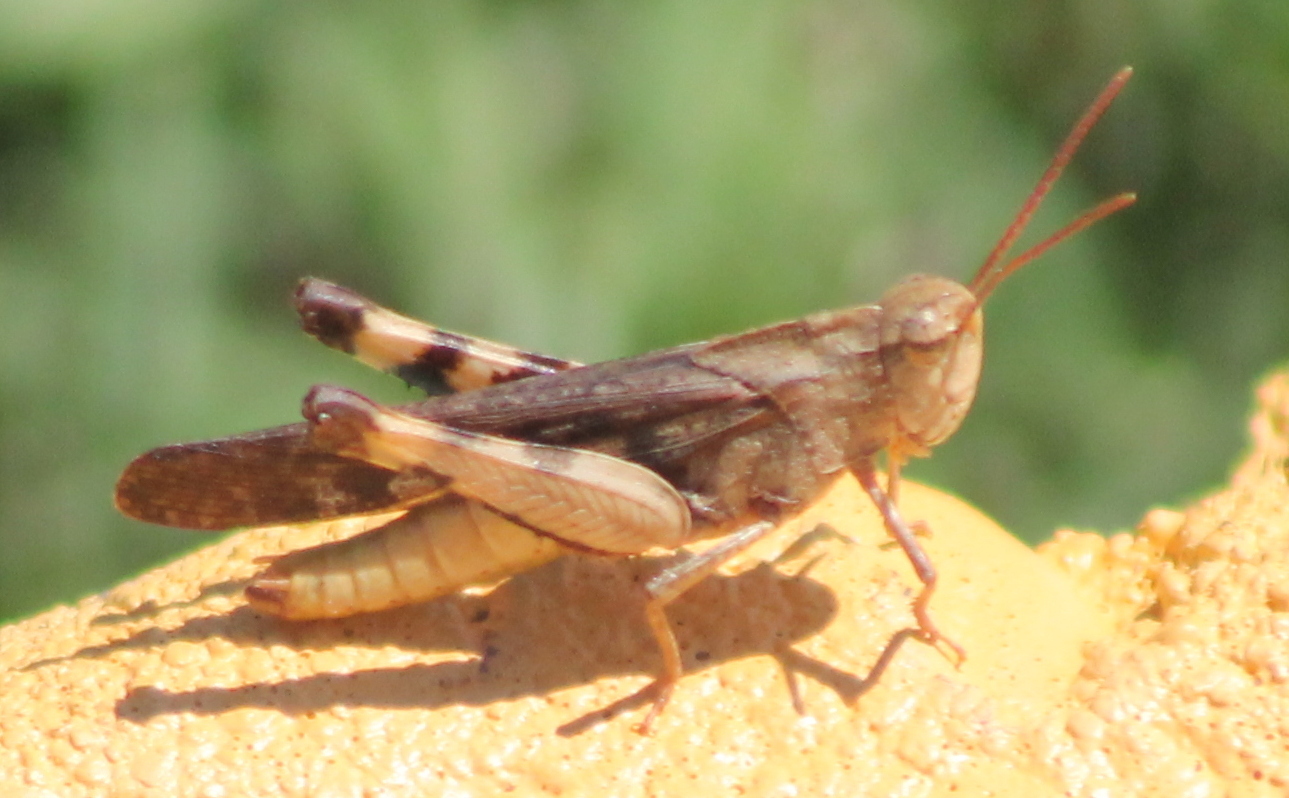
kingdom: Animalia
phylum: Arthropoda
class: Insecta
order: Orthoptera
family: Acrididae
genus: Chortophaga
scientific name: Chortophaga viridifasciata
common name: Green-striped grasshopper
